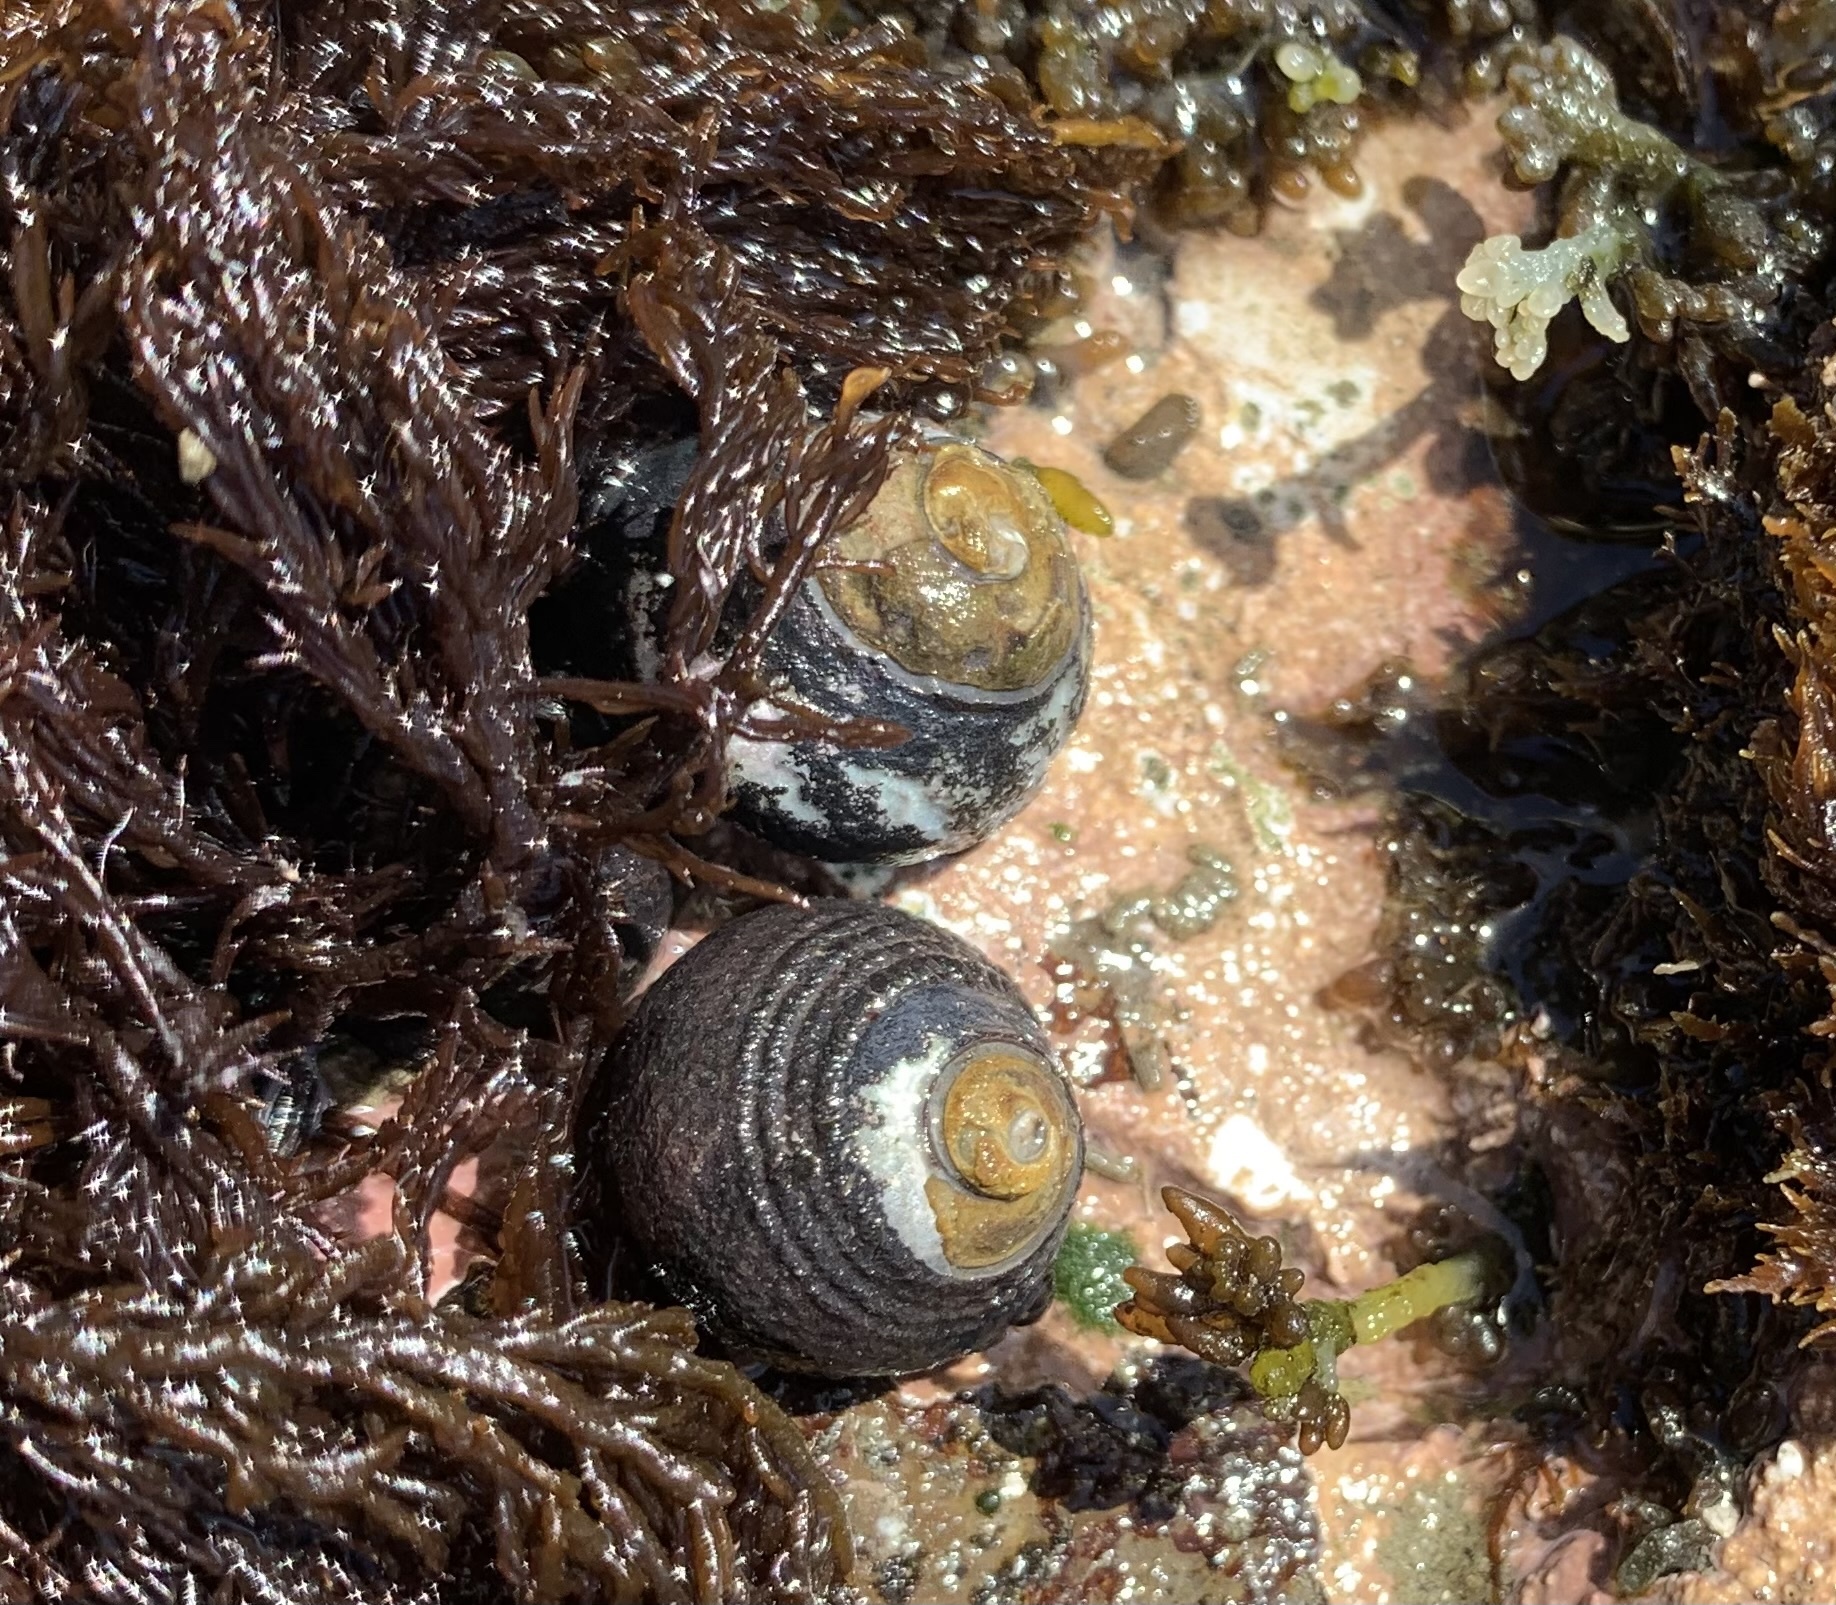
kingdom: Animalia
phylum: Mollusca
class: Gastropoda
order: Trochida
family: Tegulidae
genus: Tegula
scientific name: Tegula funebralis
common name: Black tegula
